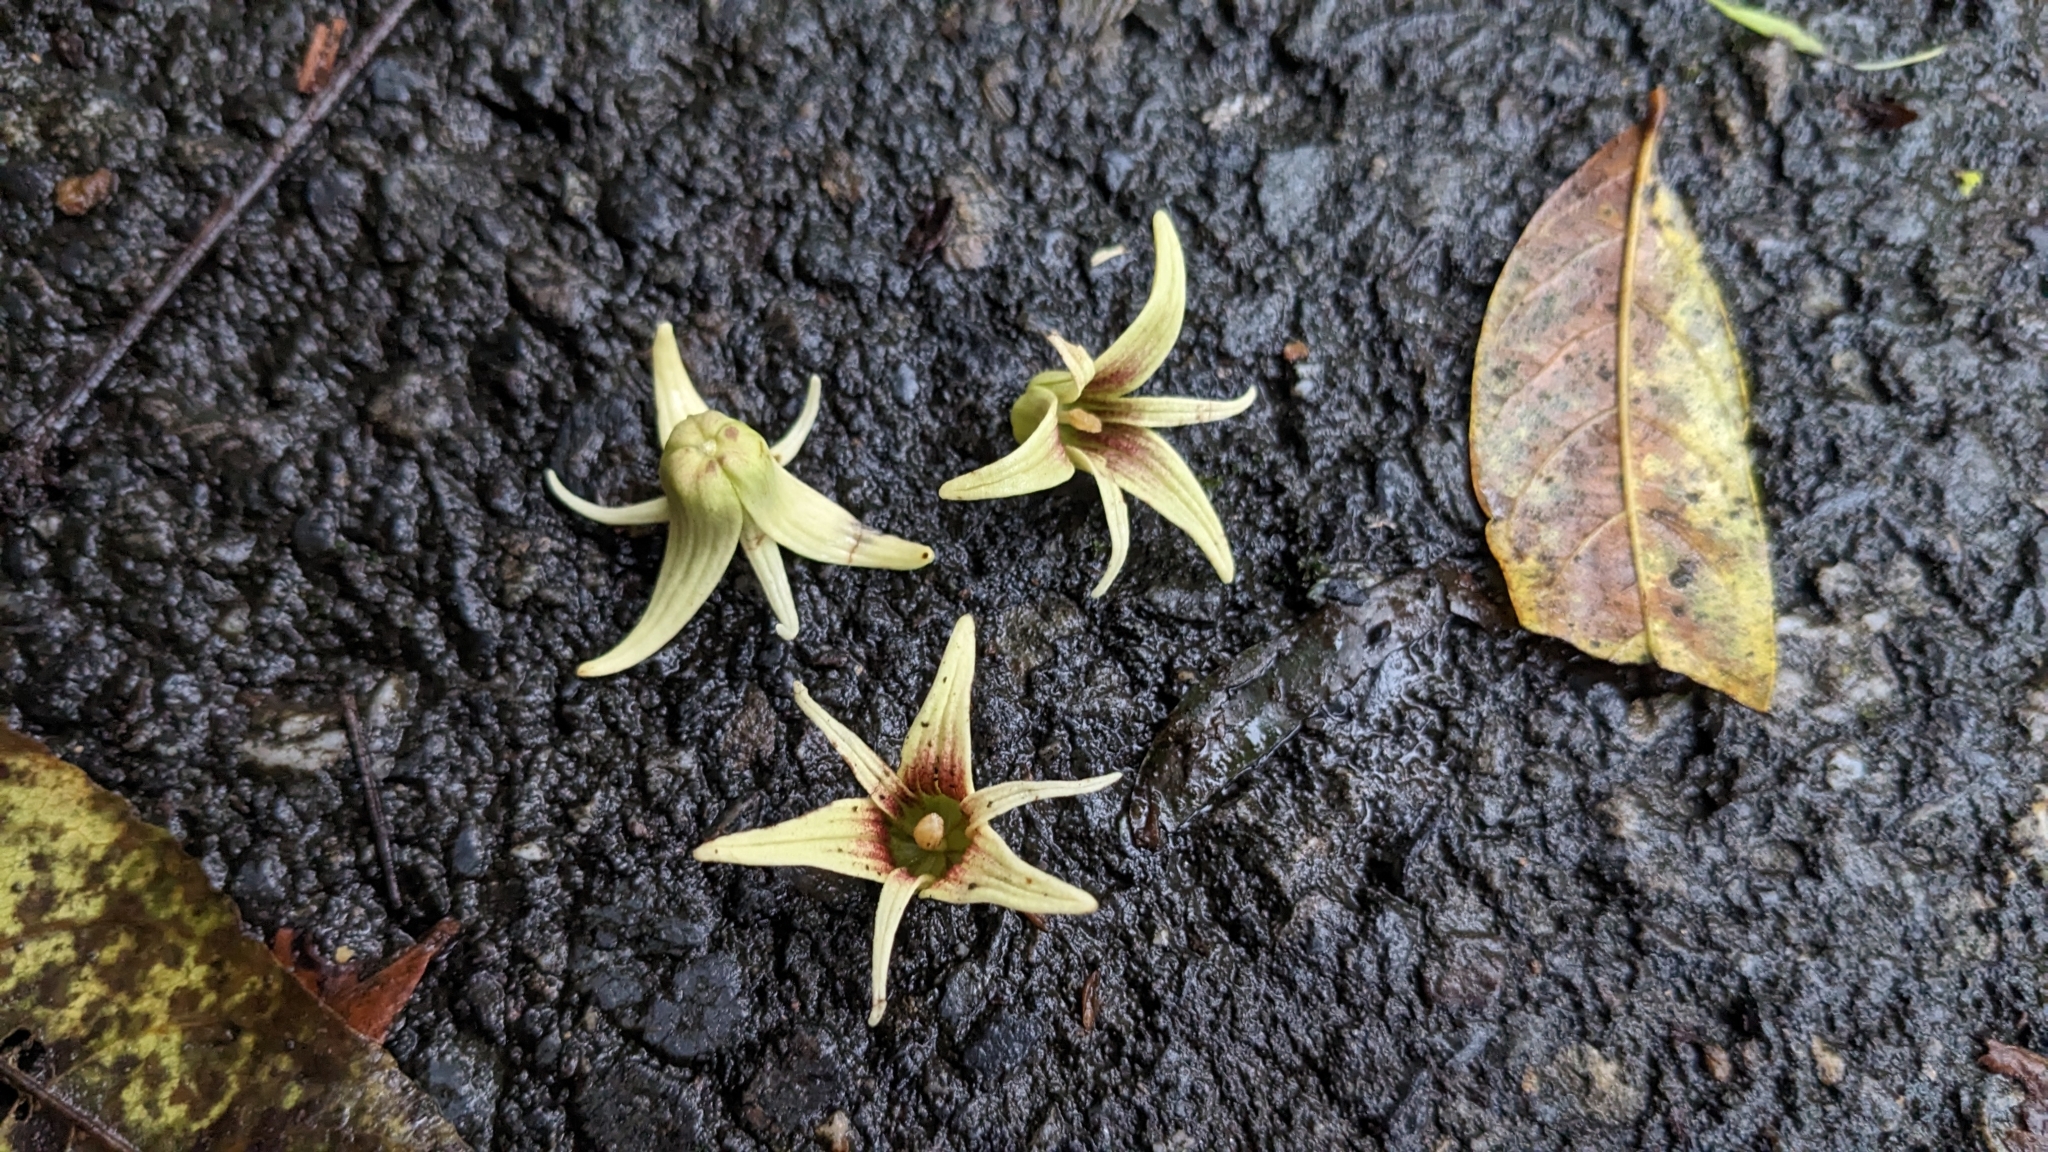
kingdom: Plantae
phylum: Tracheophyta
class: Magnoliopsida
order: Ranunculales
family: Lardizabalaceae
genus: Stauntonia
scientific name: Stauntonia obovatifoliola
